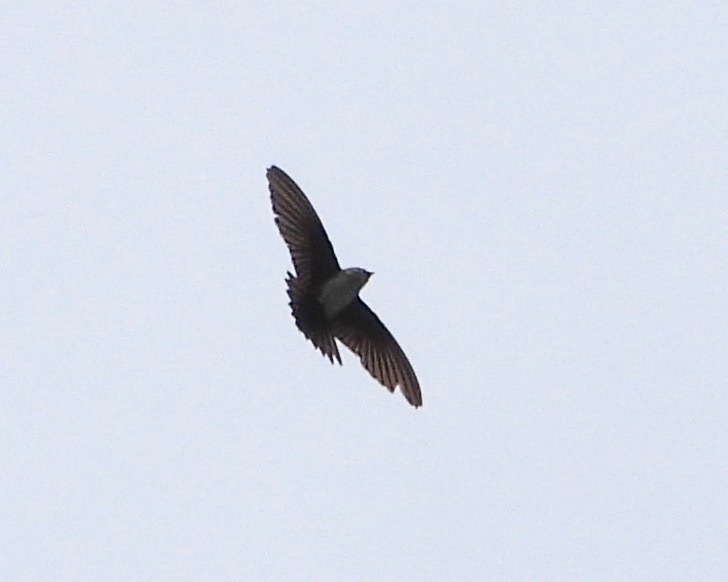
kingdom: Animalia
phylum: Chordata
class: Aves
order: Apodiformes
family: Apodidae
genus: Chaetura
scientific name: Chaetura vauxi
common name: Vaux's swift
